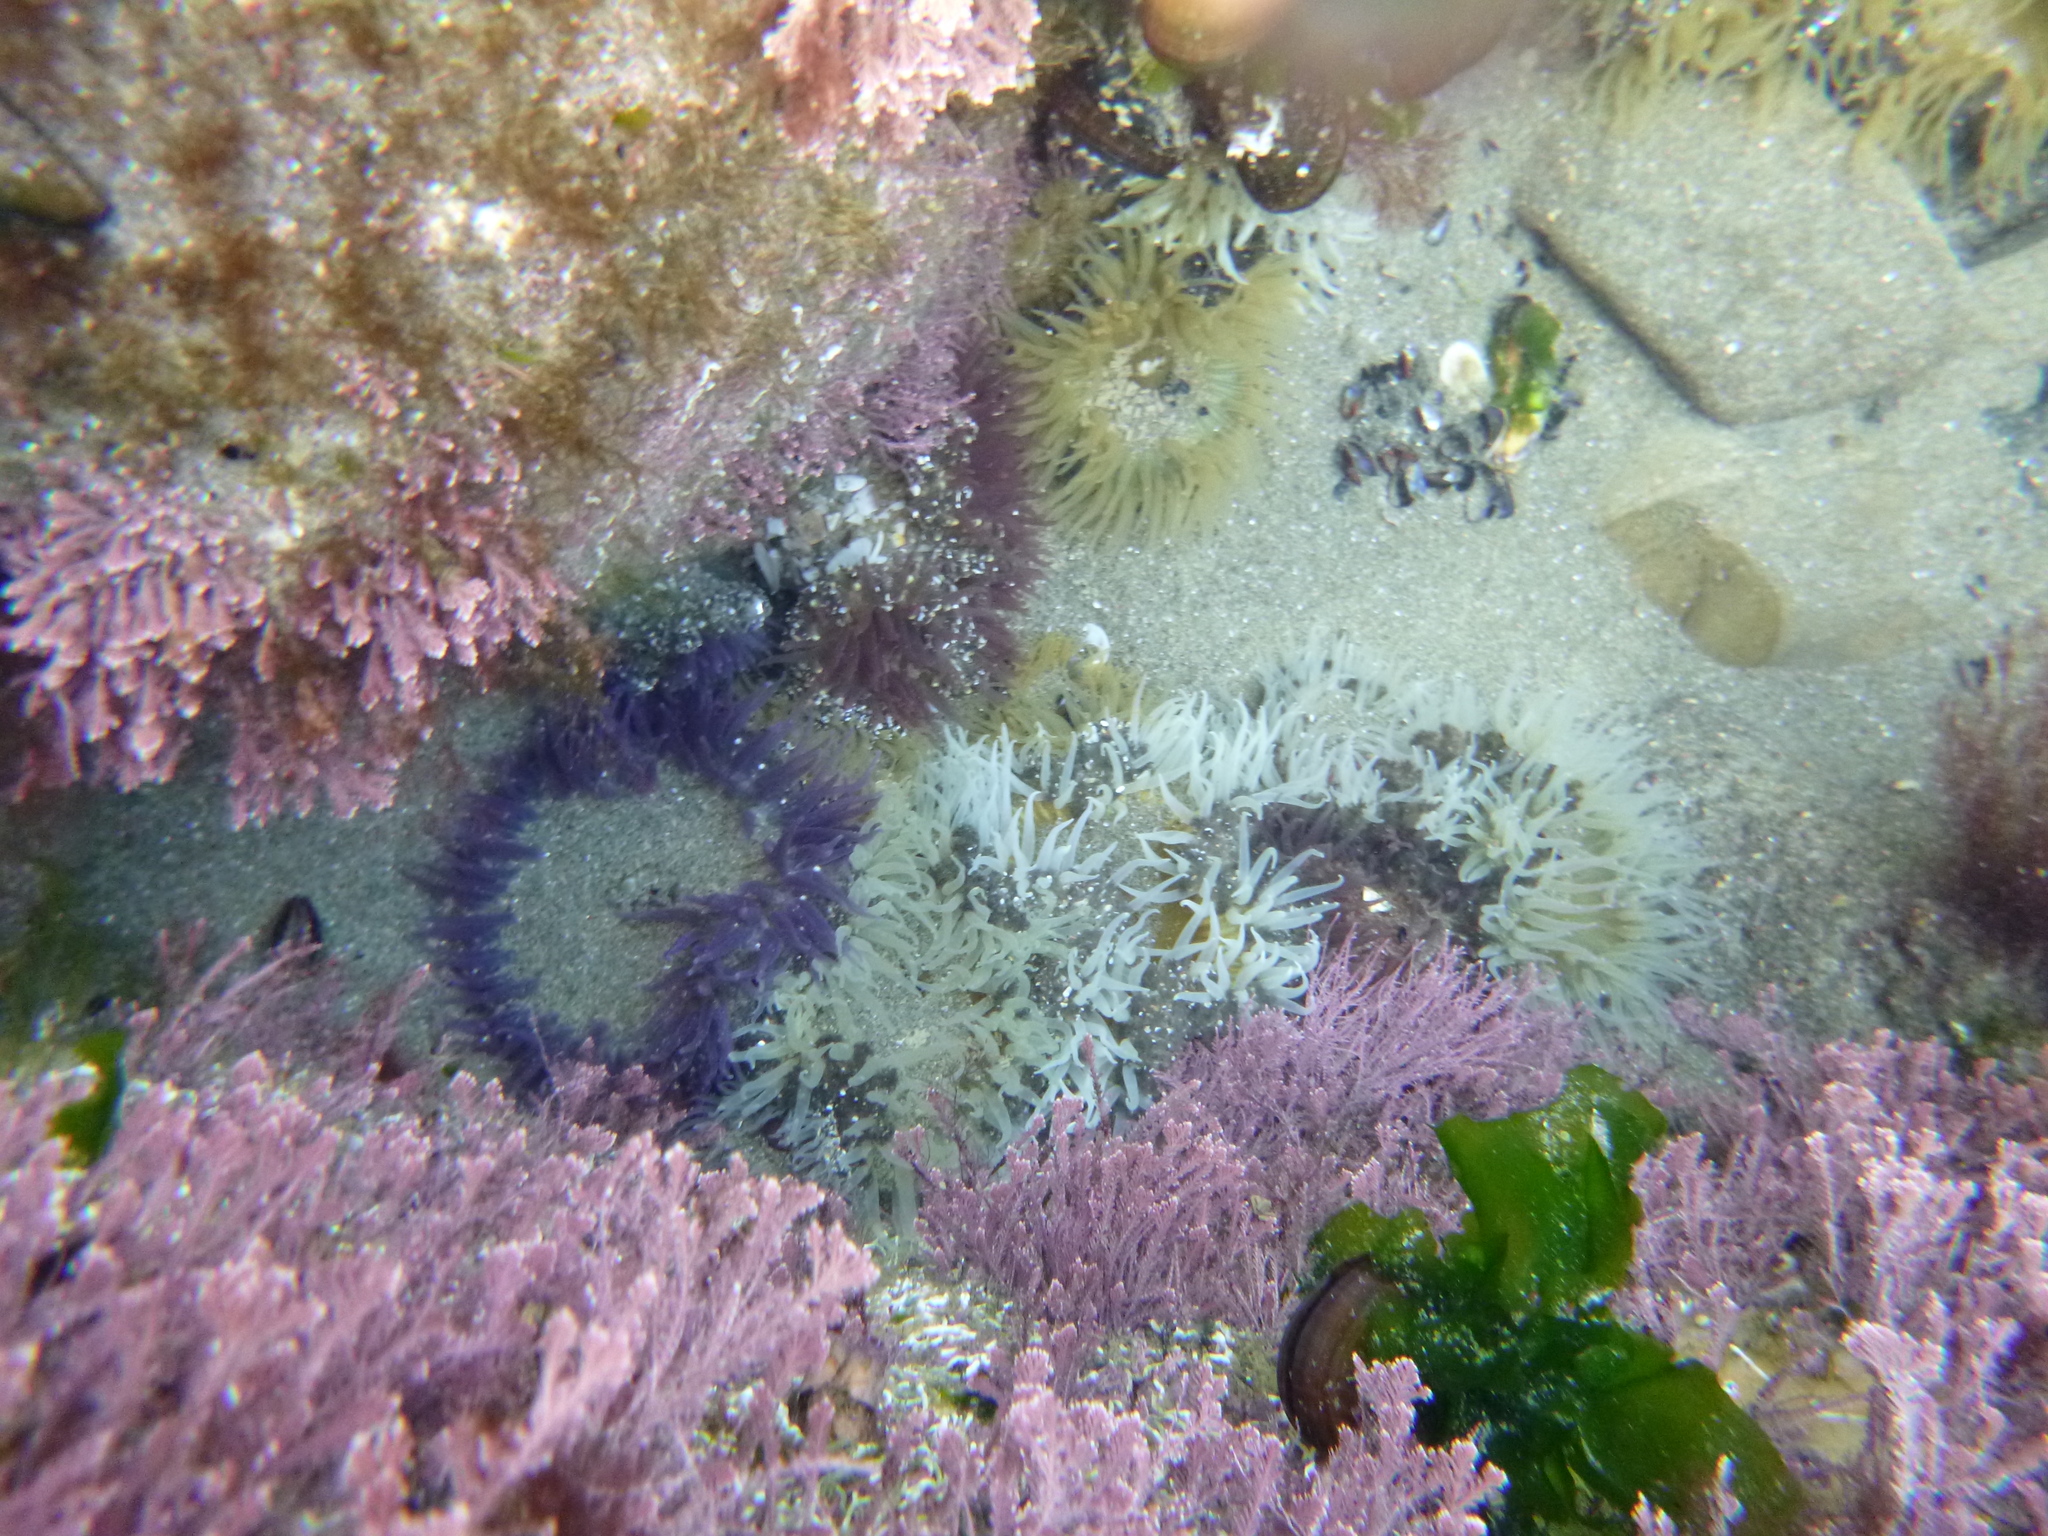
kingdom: Animalia
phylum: Cnidaria
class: Anthozoa
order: Actiniaria
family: Actiniidae
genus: Oulactis
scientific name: Oulactis magna
